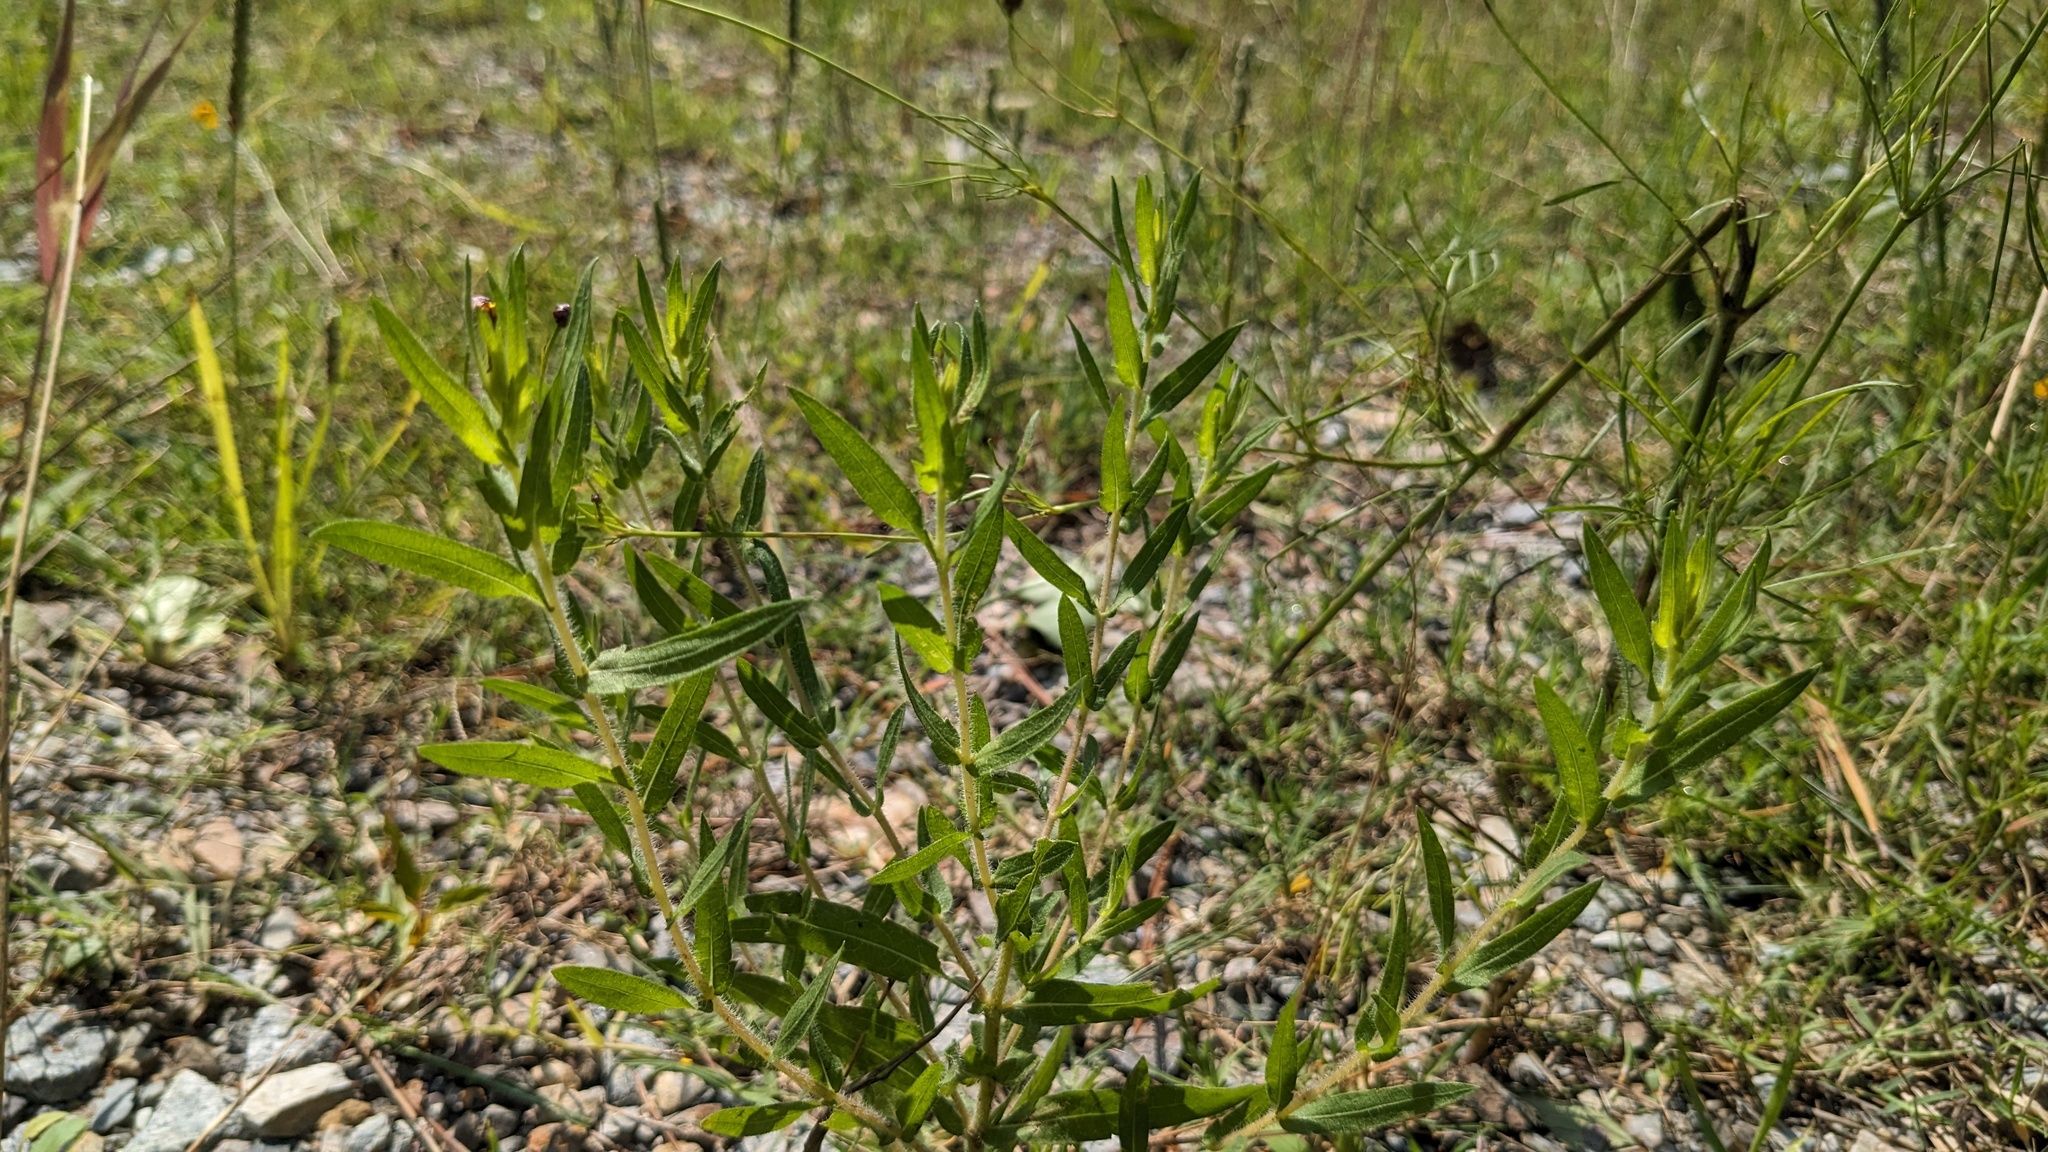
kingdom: Plantae
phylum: Tracheophyta
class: Magnoliopsida
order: Asterales
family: Asteraceae
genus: Ambrosia
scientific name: Ambrosia bidentata
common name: Southern ragweed
